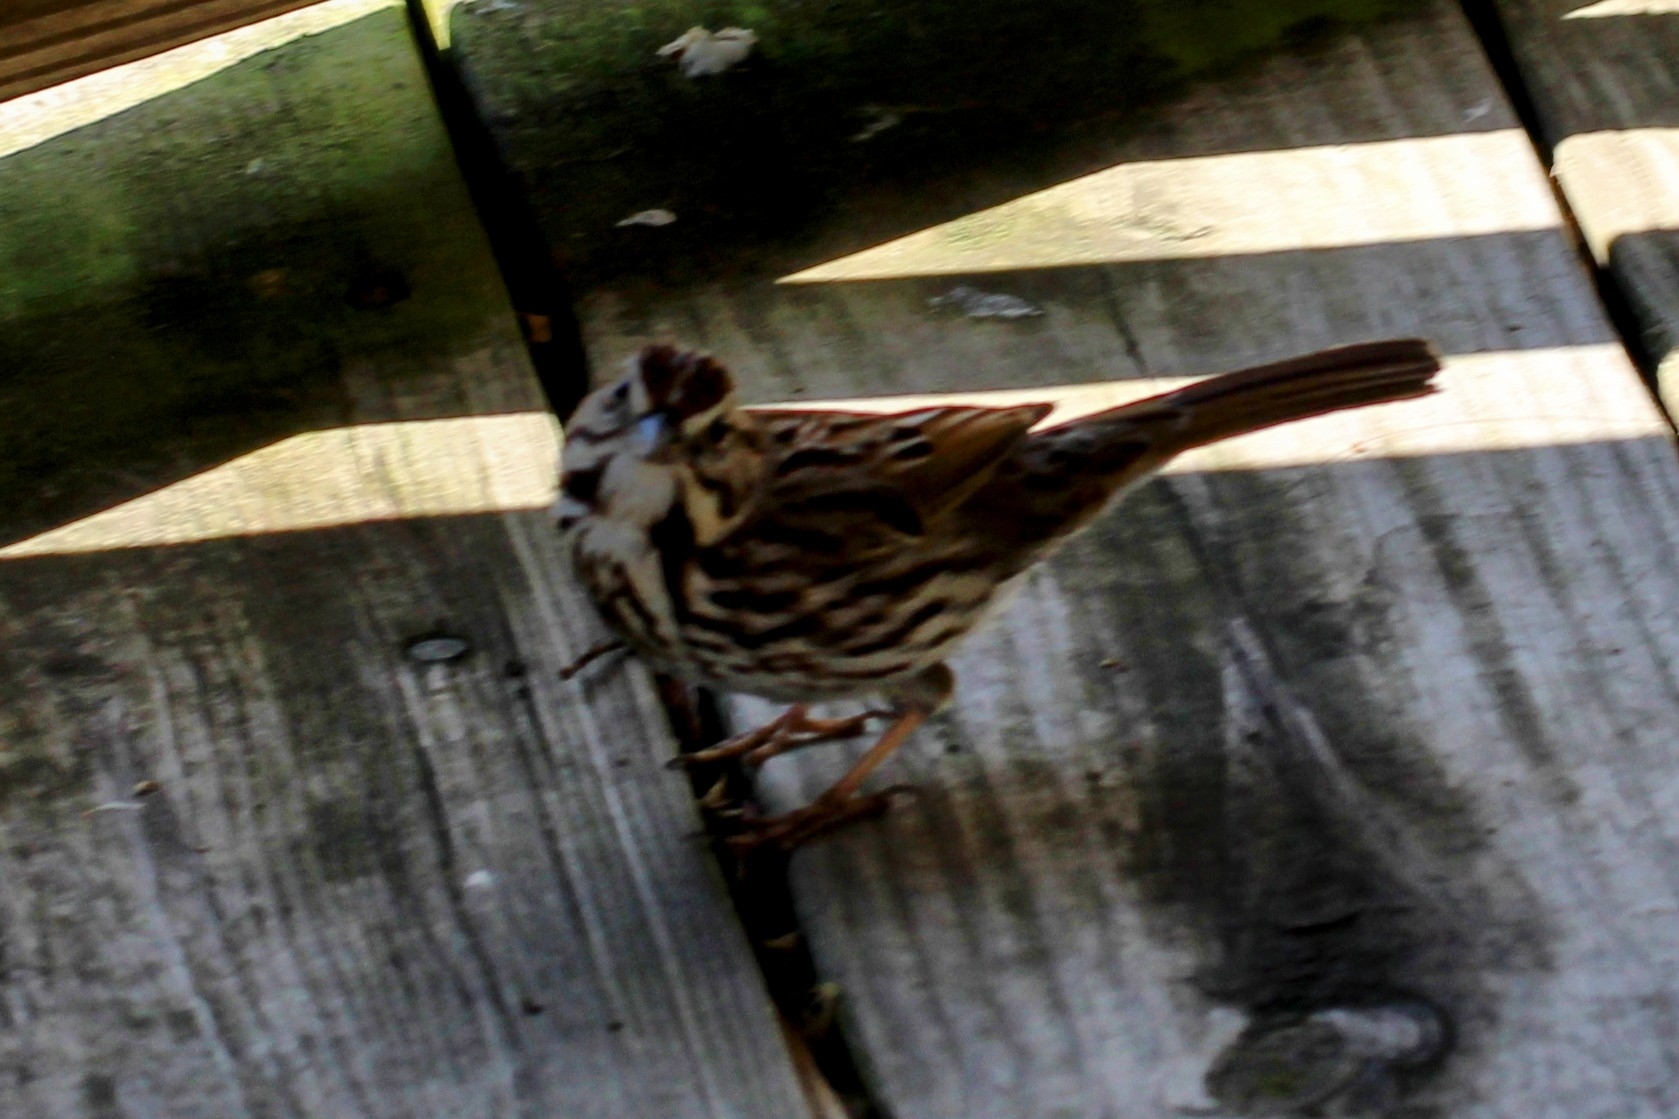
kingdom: Animalia
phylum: Chordata
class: Aves
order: Passeriformes
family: Passerellidae
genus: Melospiza
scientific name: Melospiza melodia
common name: Song sparrow
